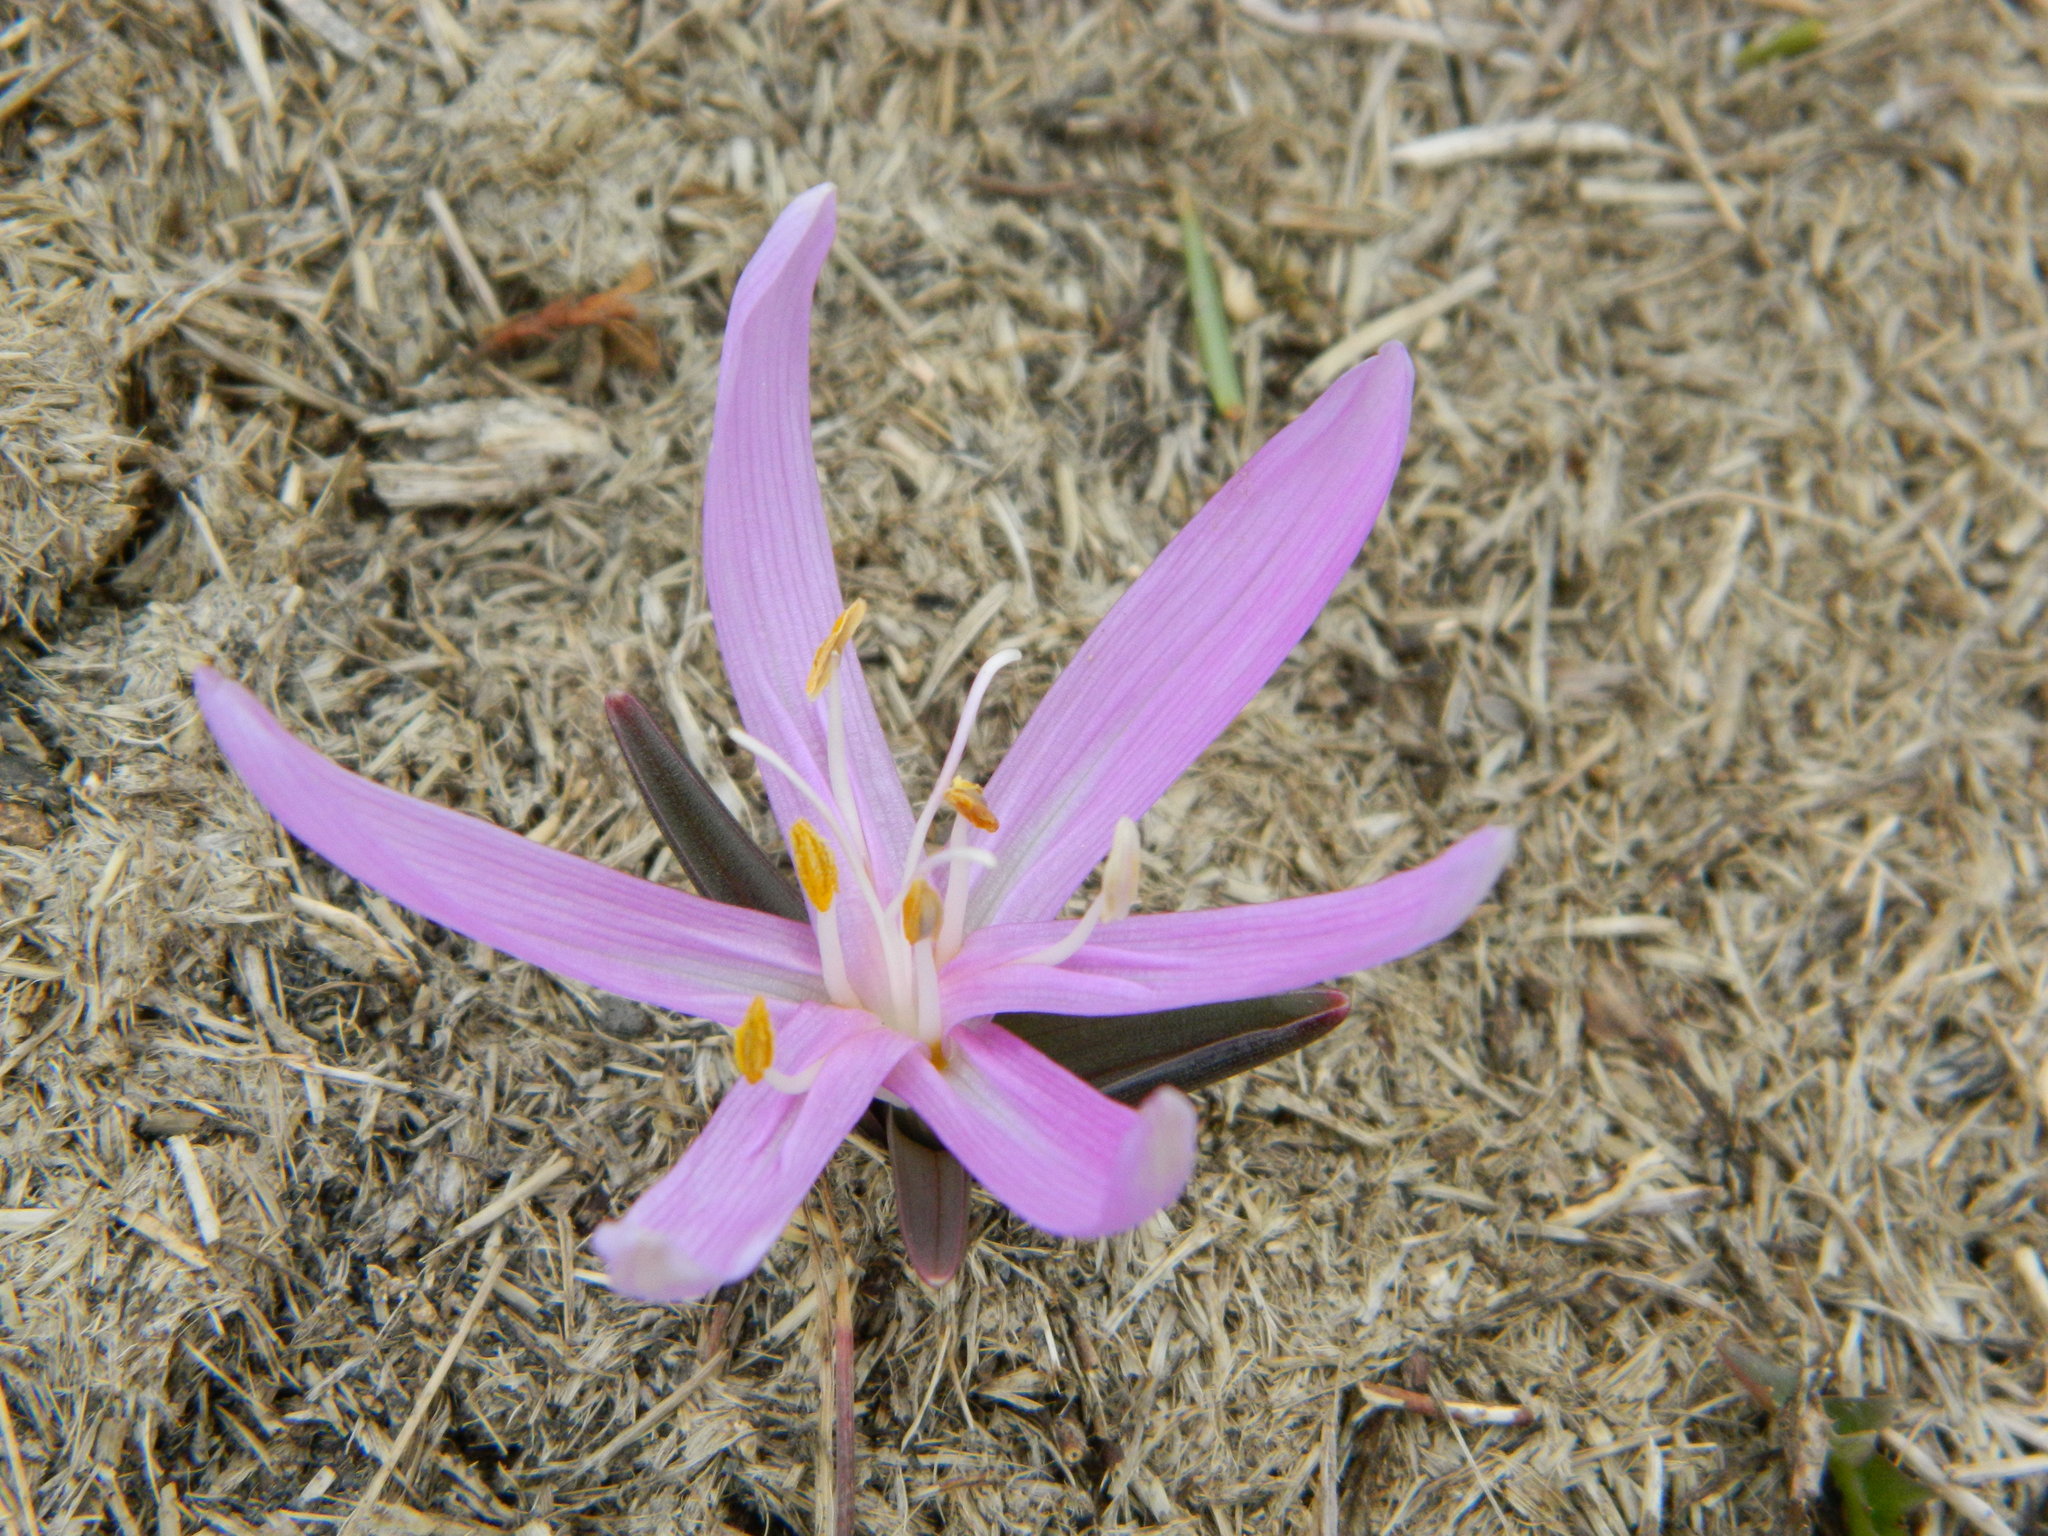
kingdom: Plantae
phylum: Tracheophyta
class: Liliopsida
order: Liliales
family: Colchicaceae
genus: Colchicum
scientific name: Colchicum bulbocodium
